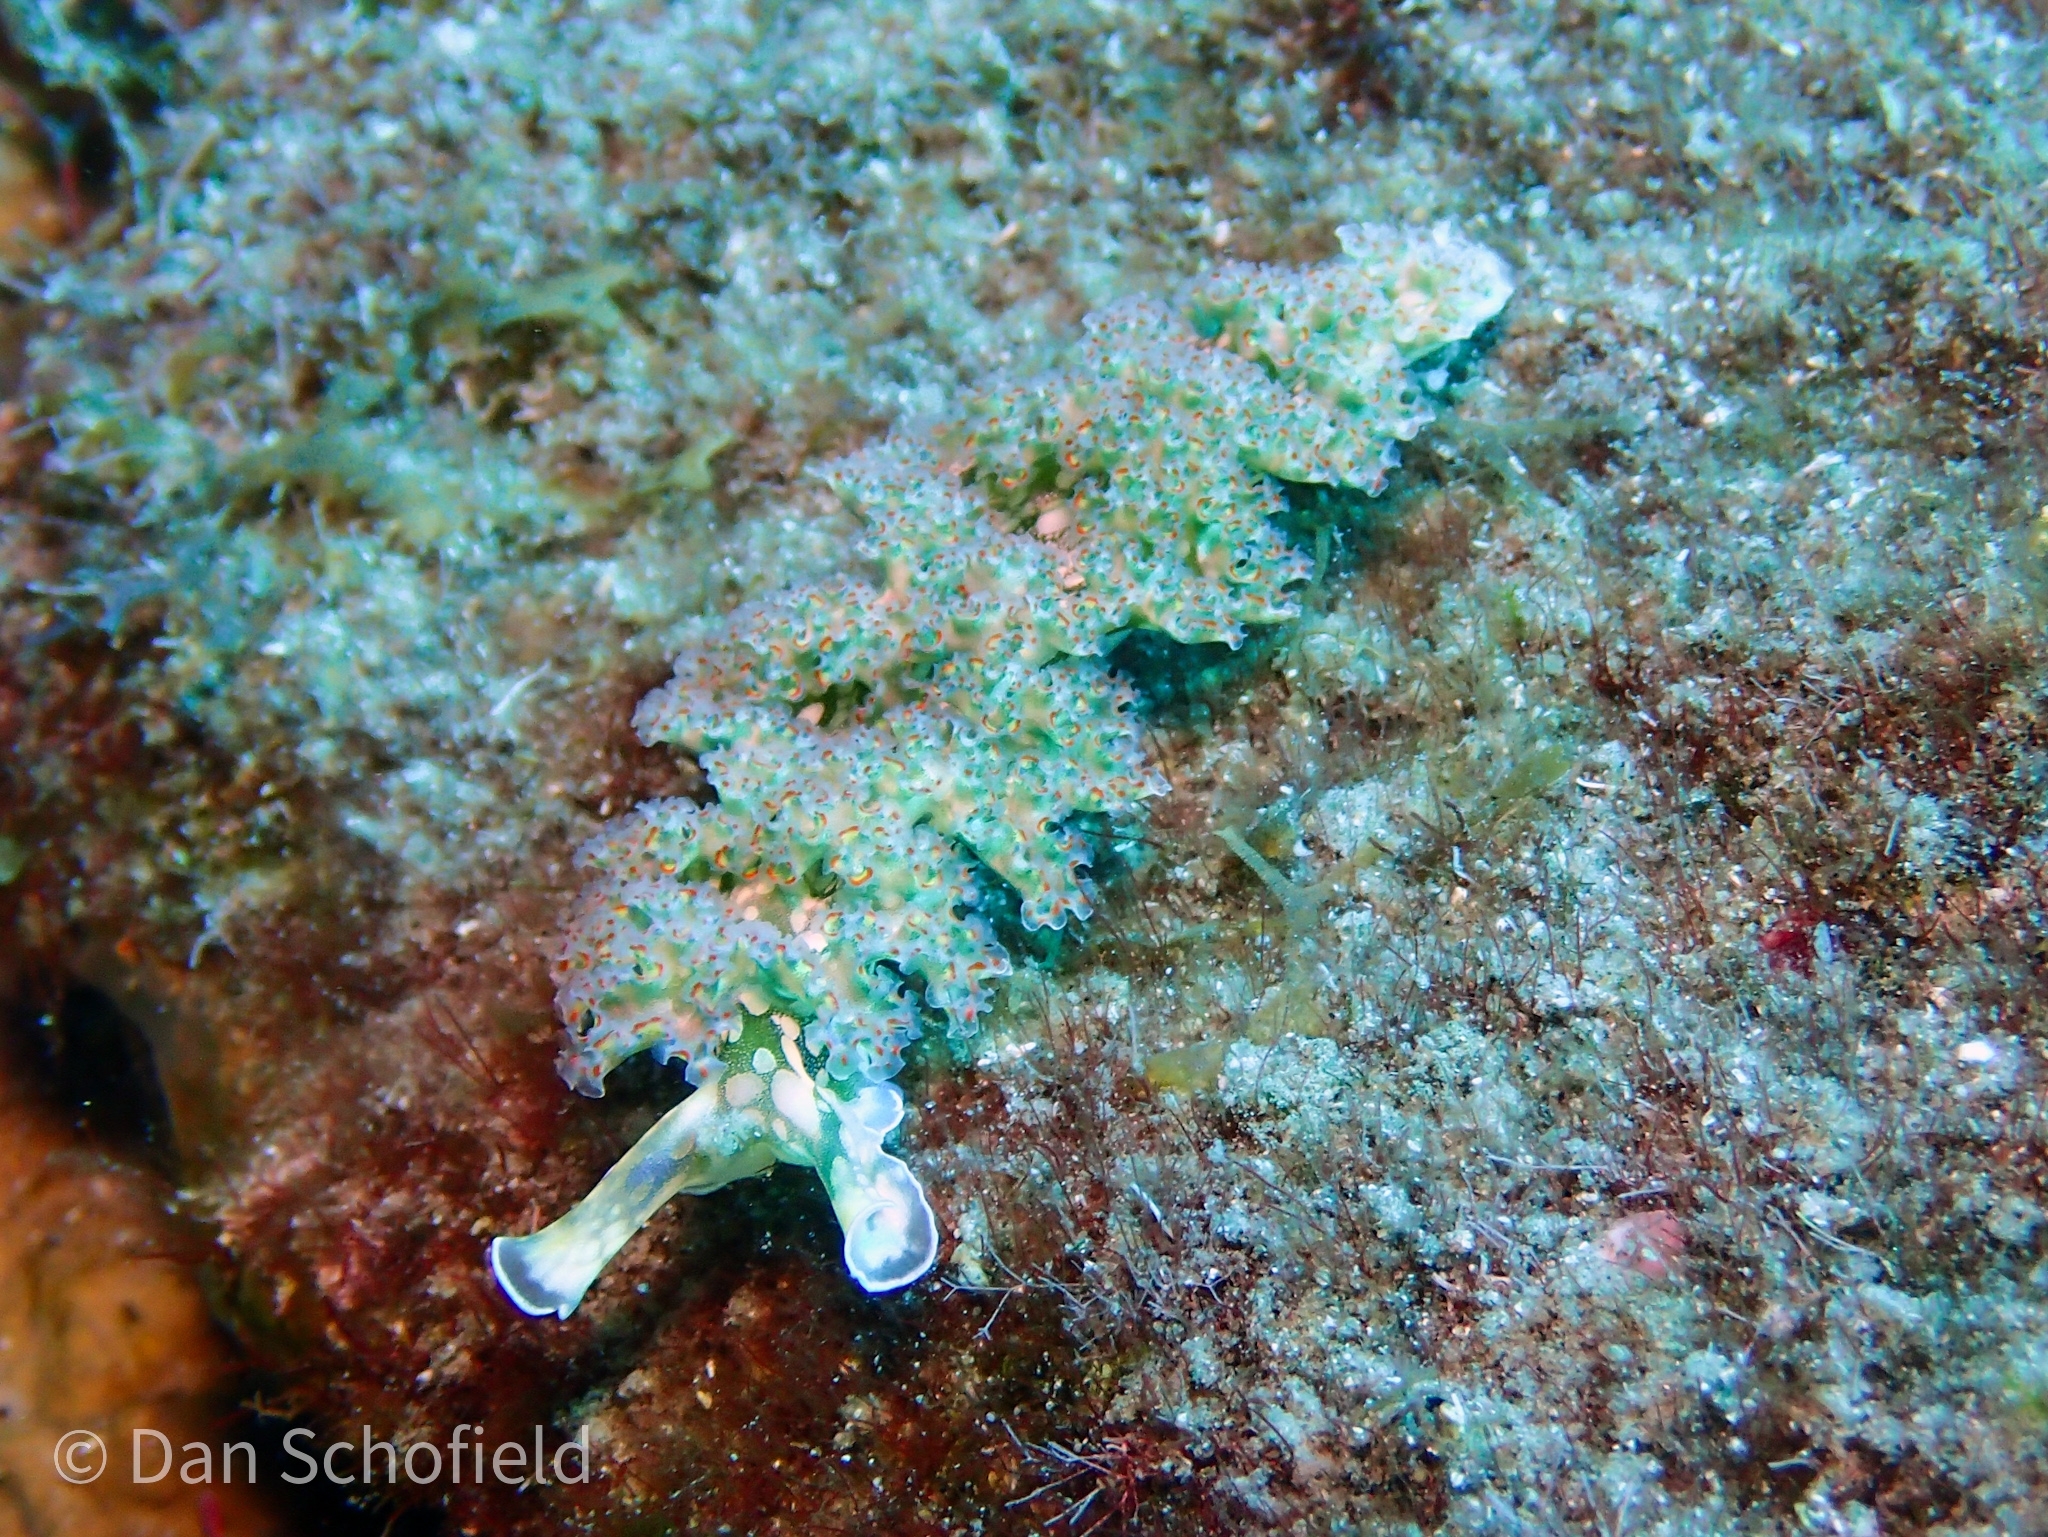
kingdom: Animalia
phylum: Mollusca
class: Gastropoda
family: Plakobranchidae
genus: Elysia
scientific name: Elysia crispata
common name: Lettuce slug
